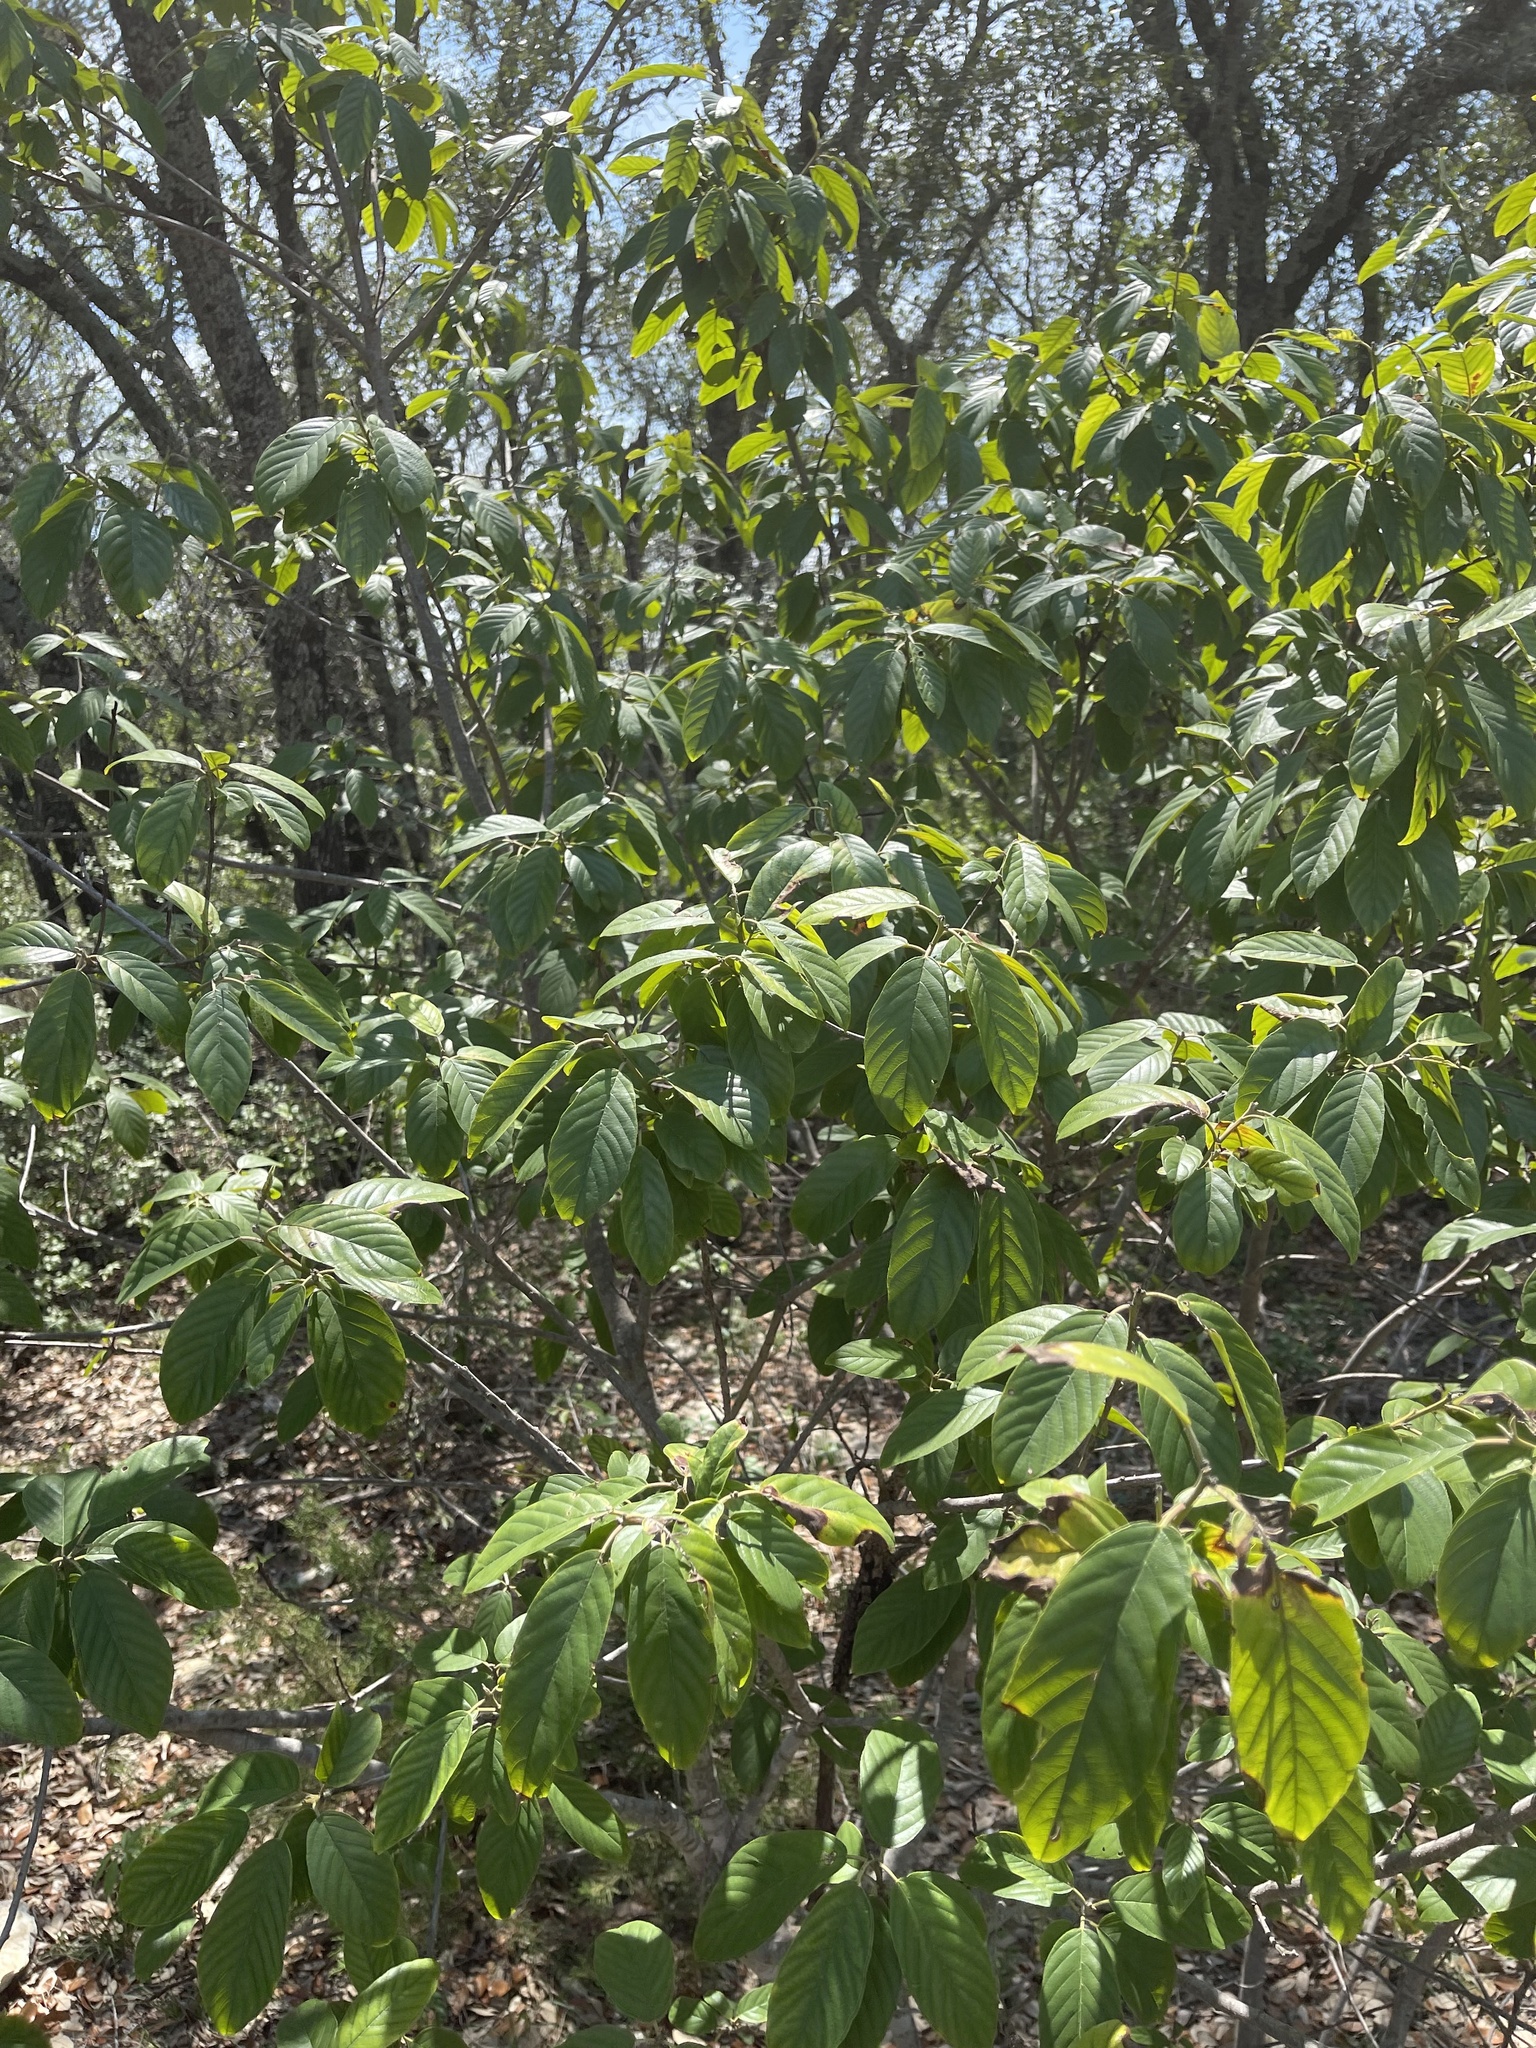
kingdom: Plantae
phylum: Tracheophyta
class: Magnoliopsida
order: Rosales
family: Rhamnaceae
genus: Frangula
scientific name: Frangula caroliniana
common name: Carolina buckthorn
